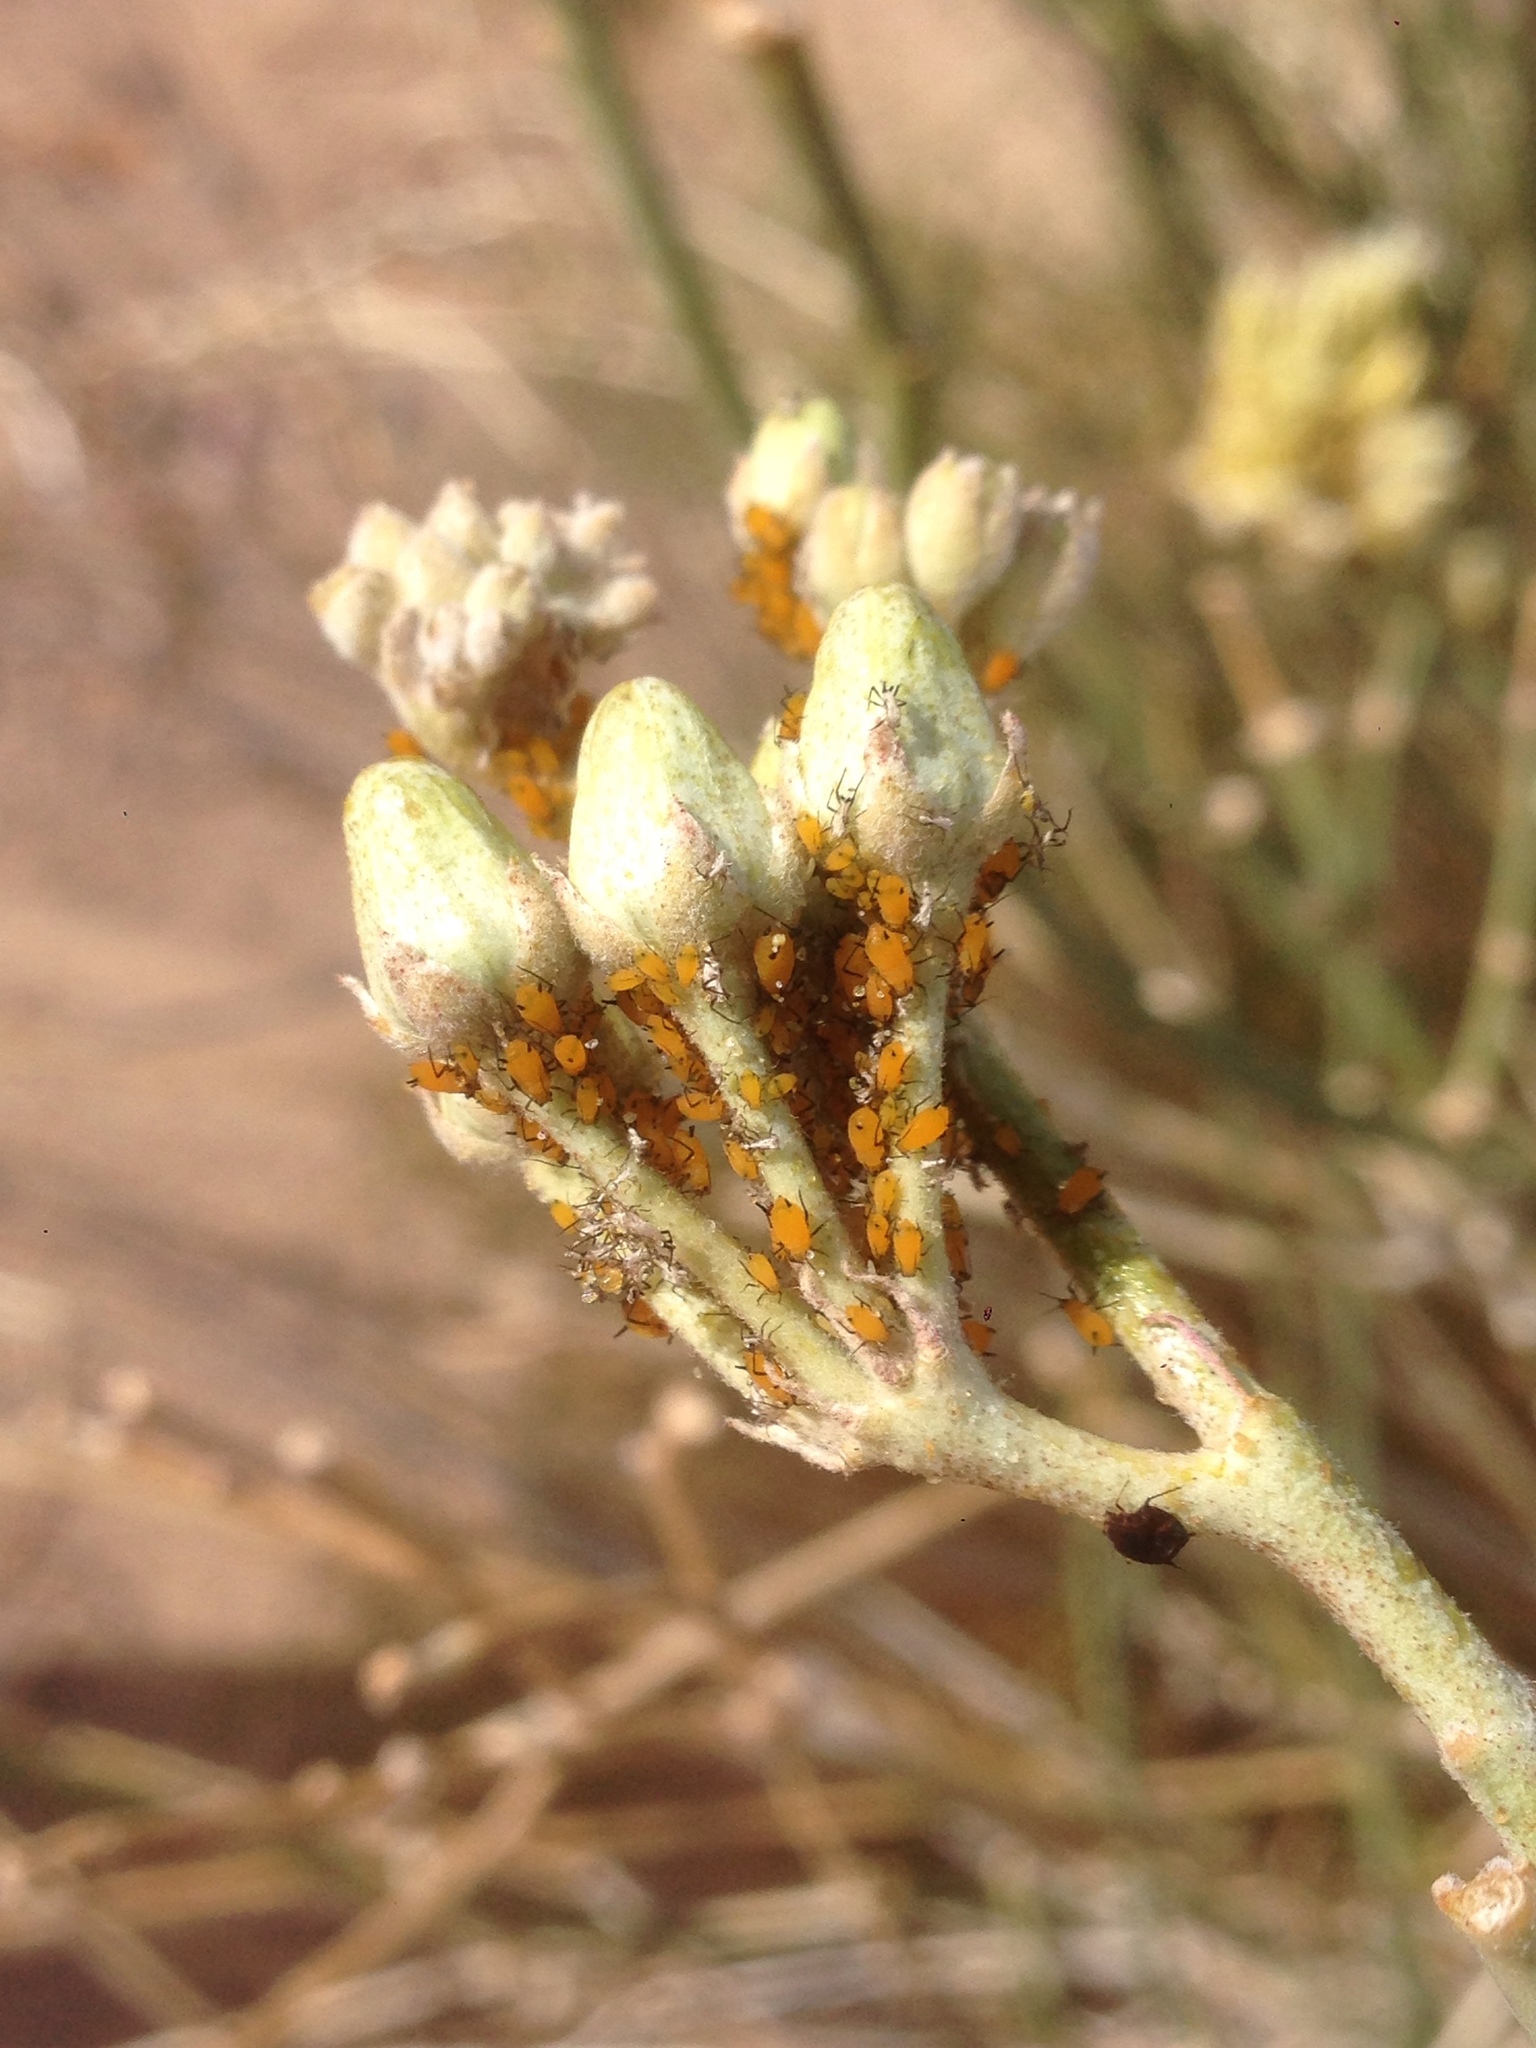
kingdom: Animalia
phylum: Arthropoda
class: Insecta
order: Hemiptera
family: Aphididae
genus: Aphis
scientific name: Aphis nerii
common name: Oleander aphid
